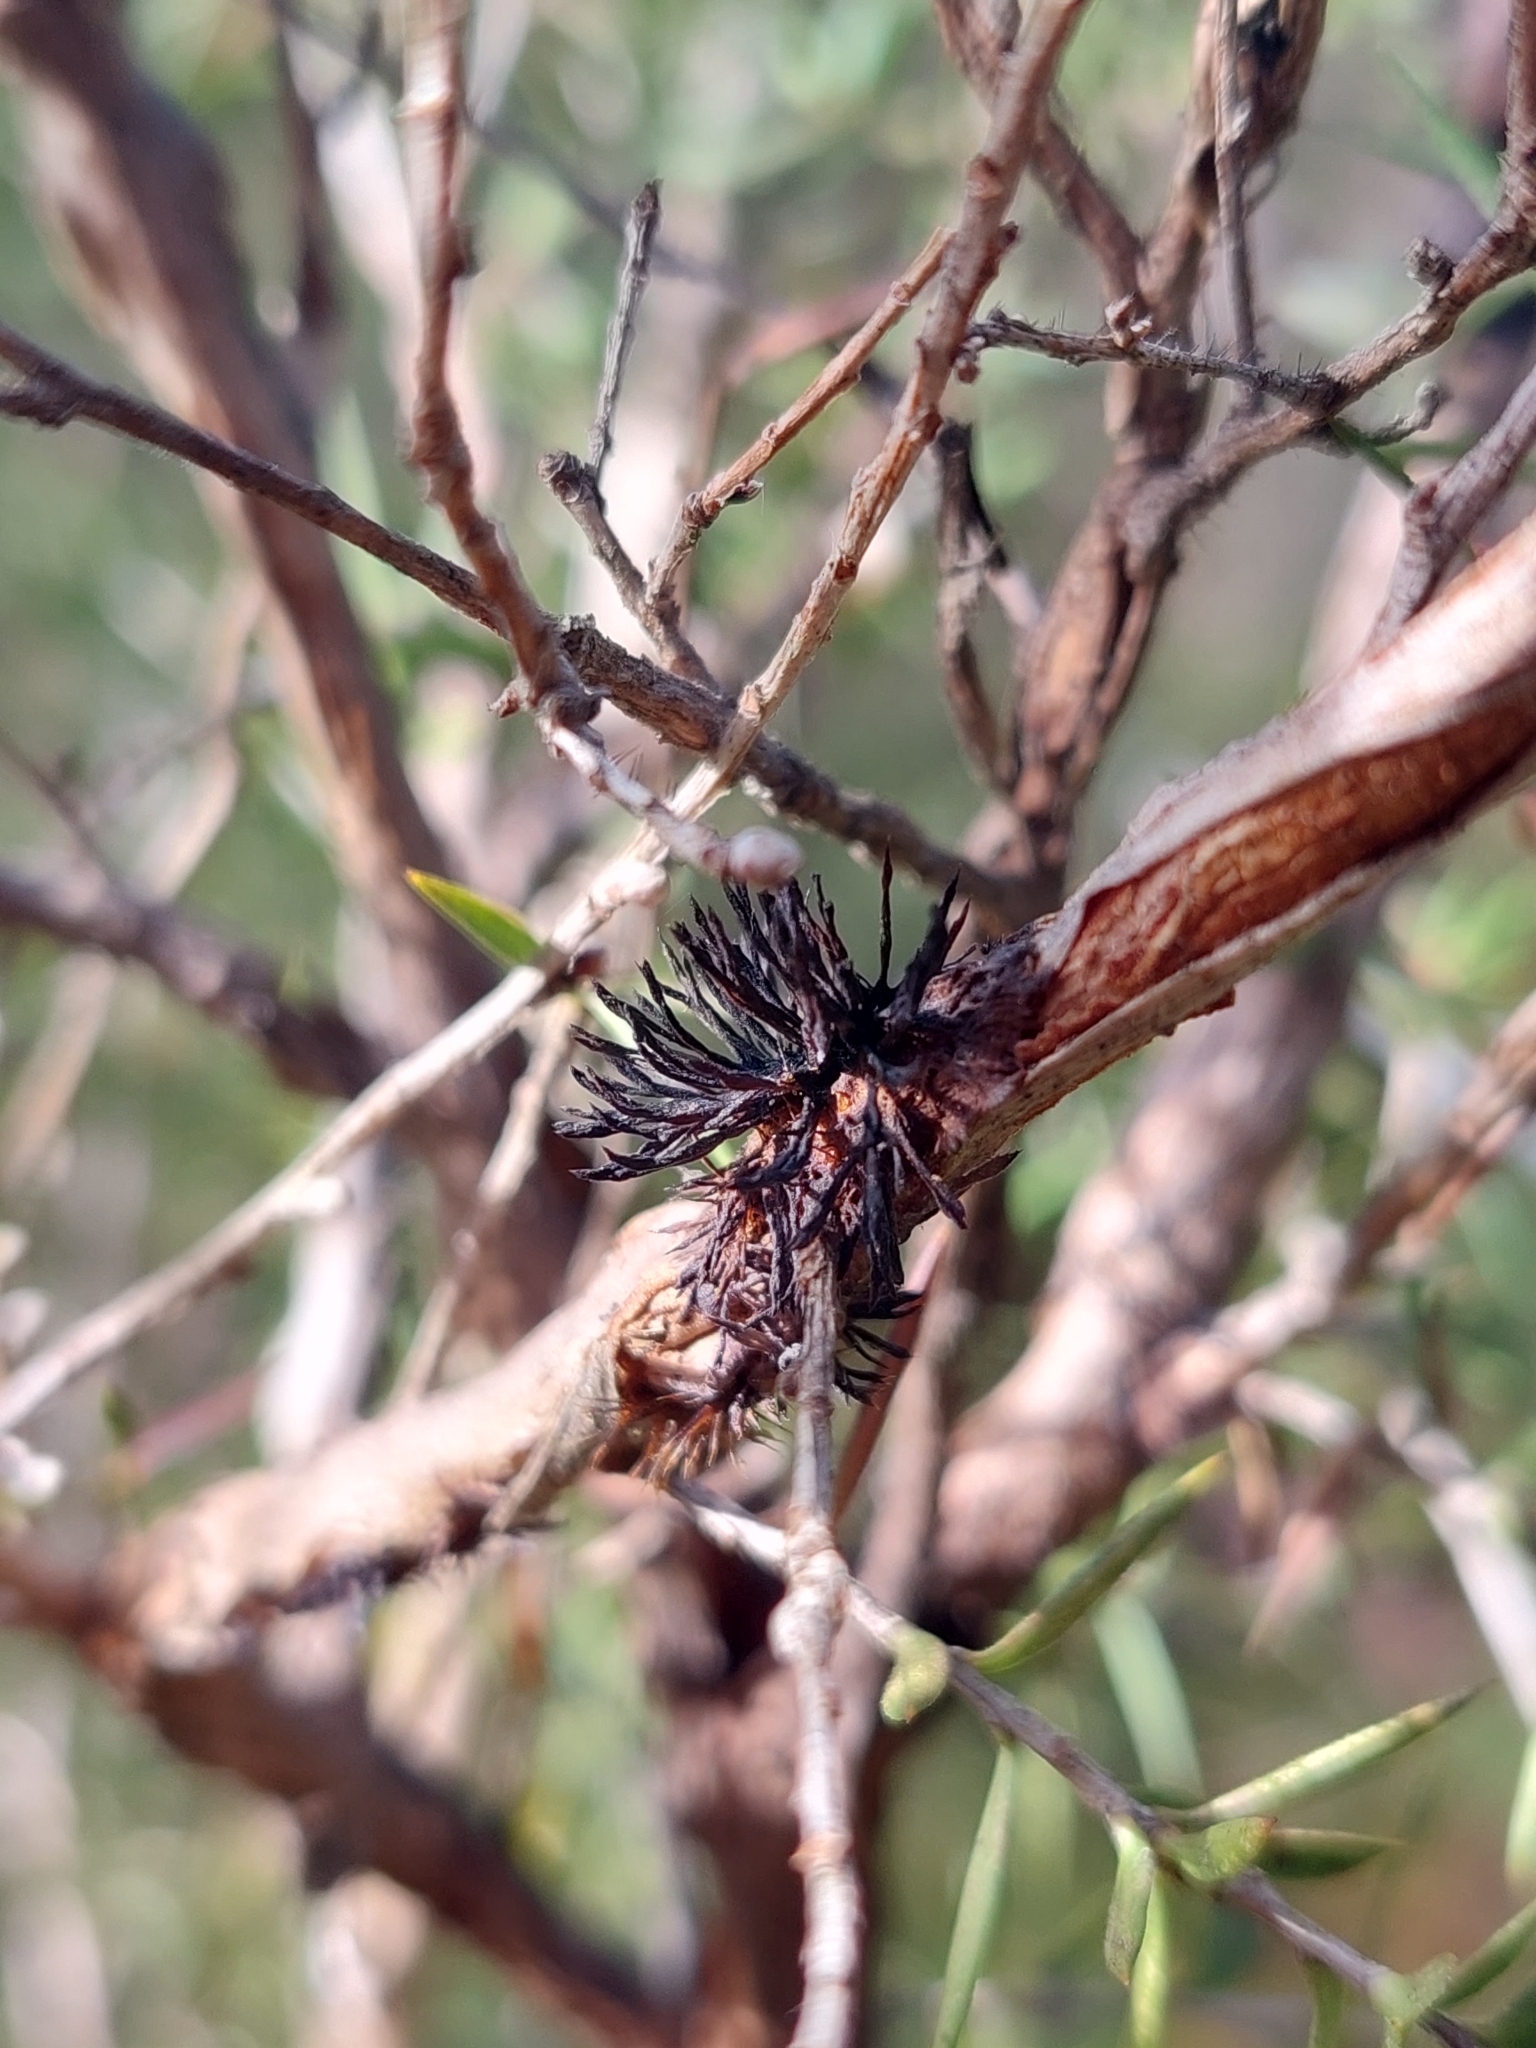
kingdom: Fungi
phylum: Basidiomycota
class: Pucciniomycetes
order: Septobasidiales
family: Septobasidiaceae
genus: Septobasidium
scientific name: Septobasidium clelandii
